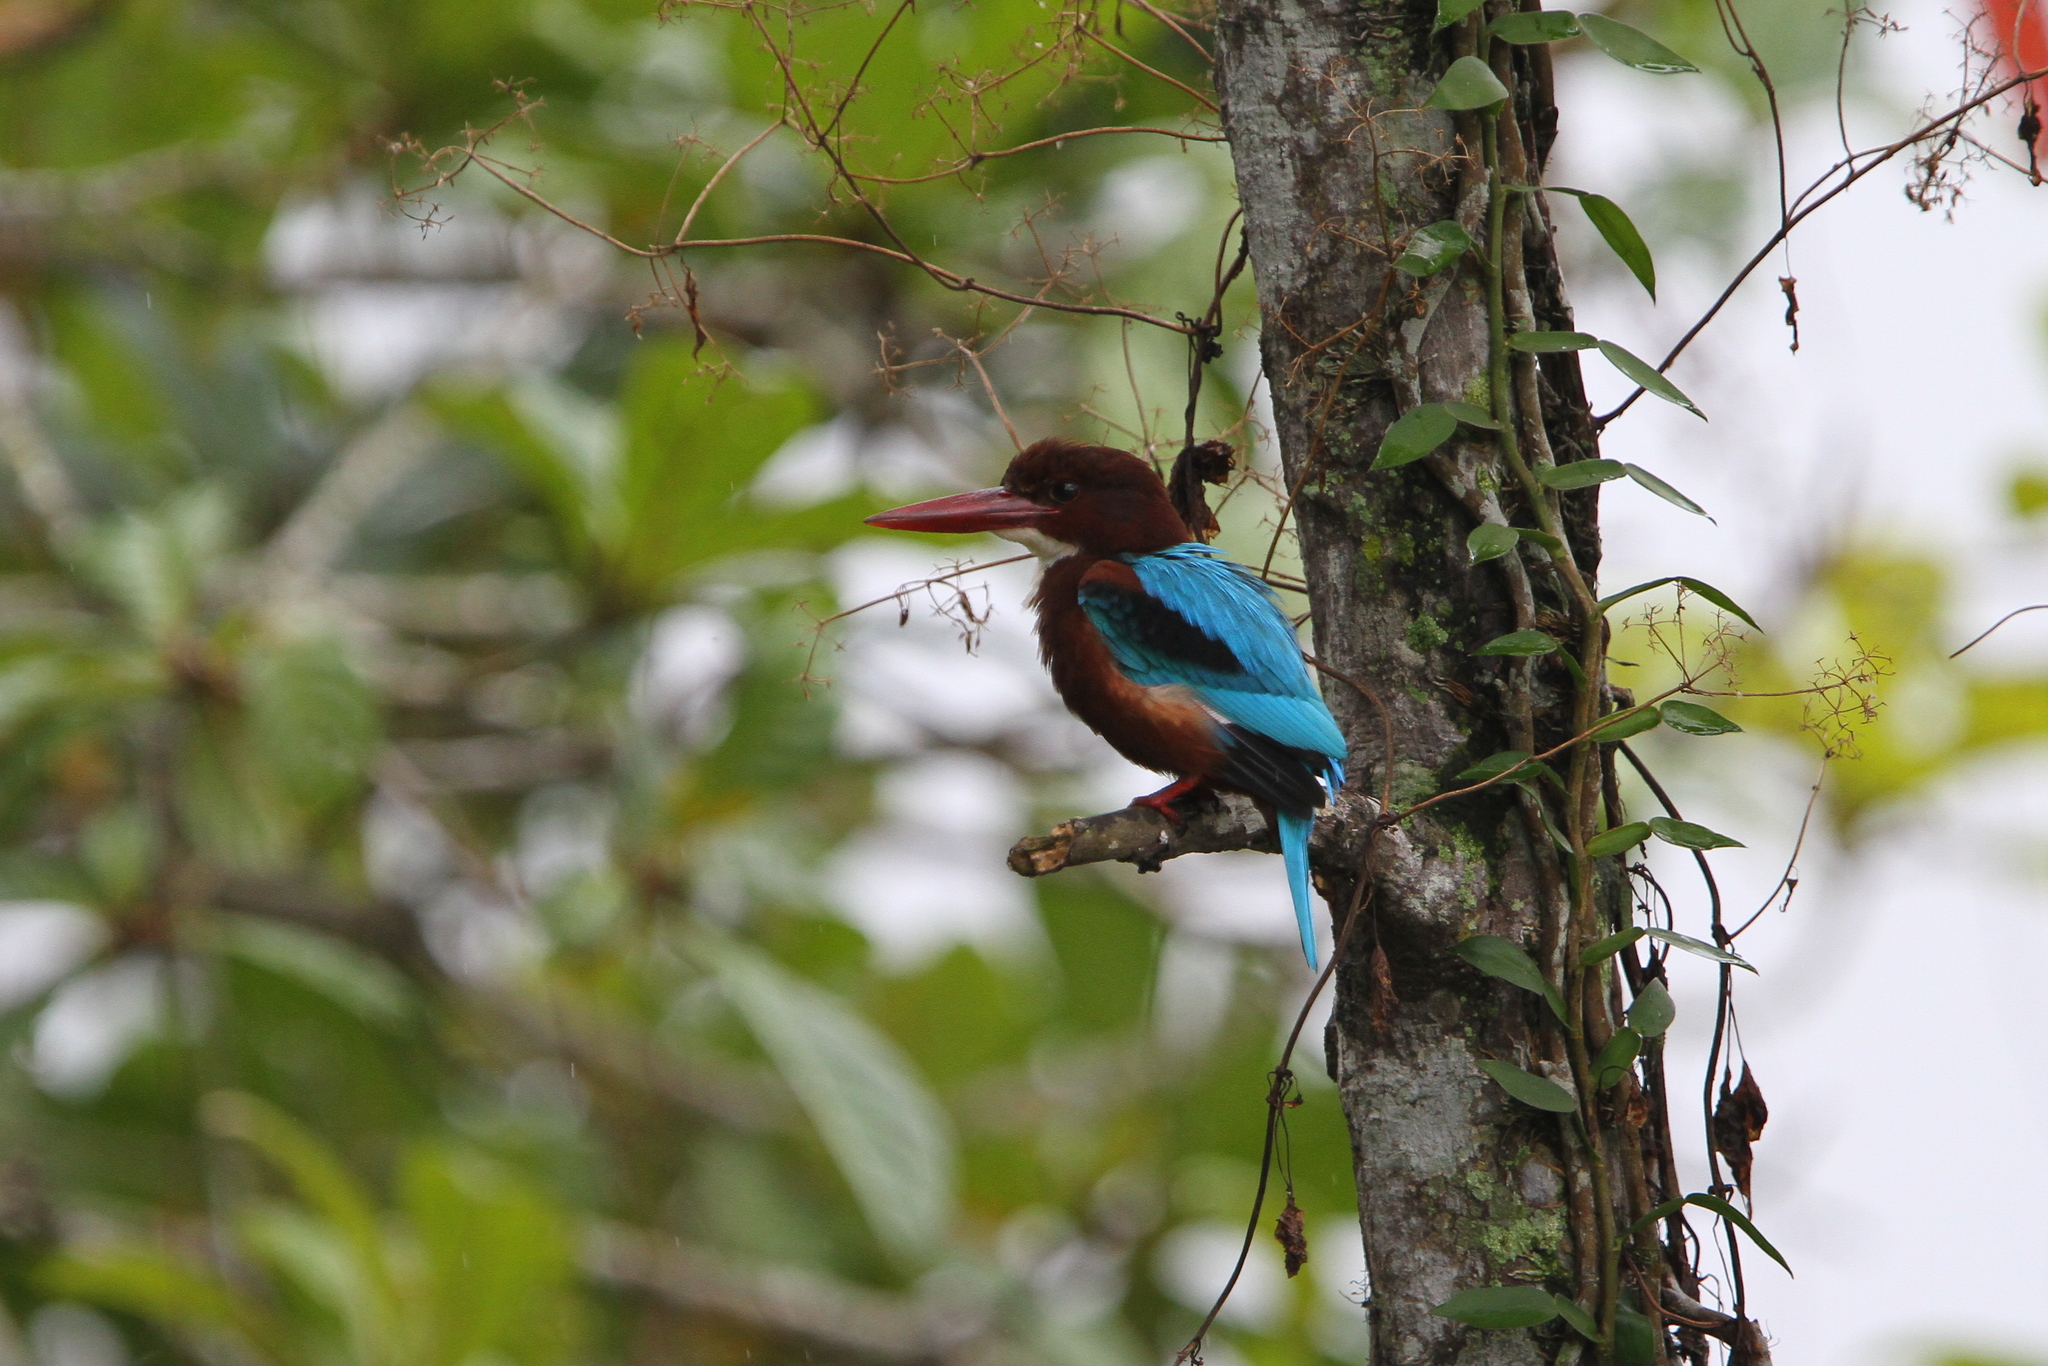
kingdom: Animalia
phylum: Chordata
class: Aves
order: Coraciiformes
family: Alcedinidae
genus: Halcyon
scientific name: Halcyon smyrnensis
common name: White-throated kingfisher
